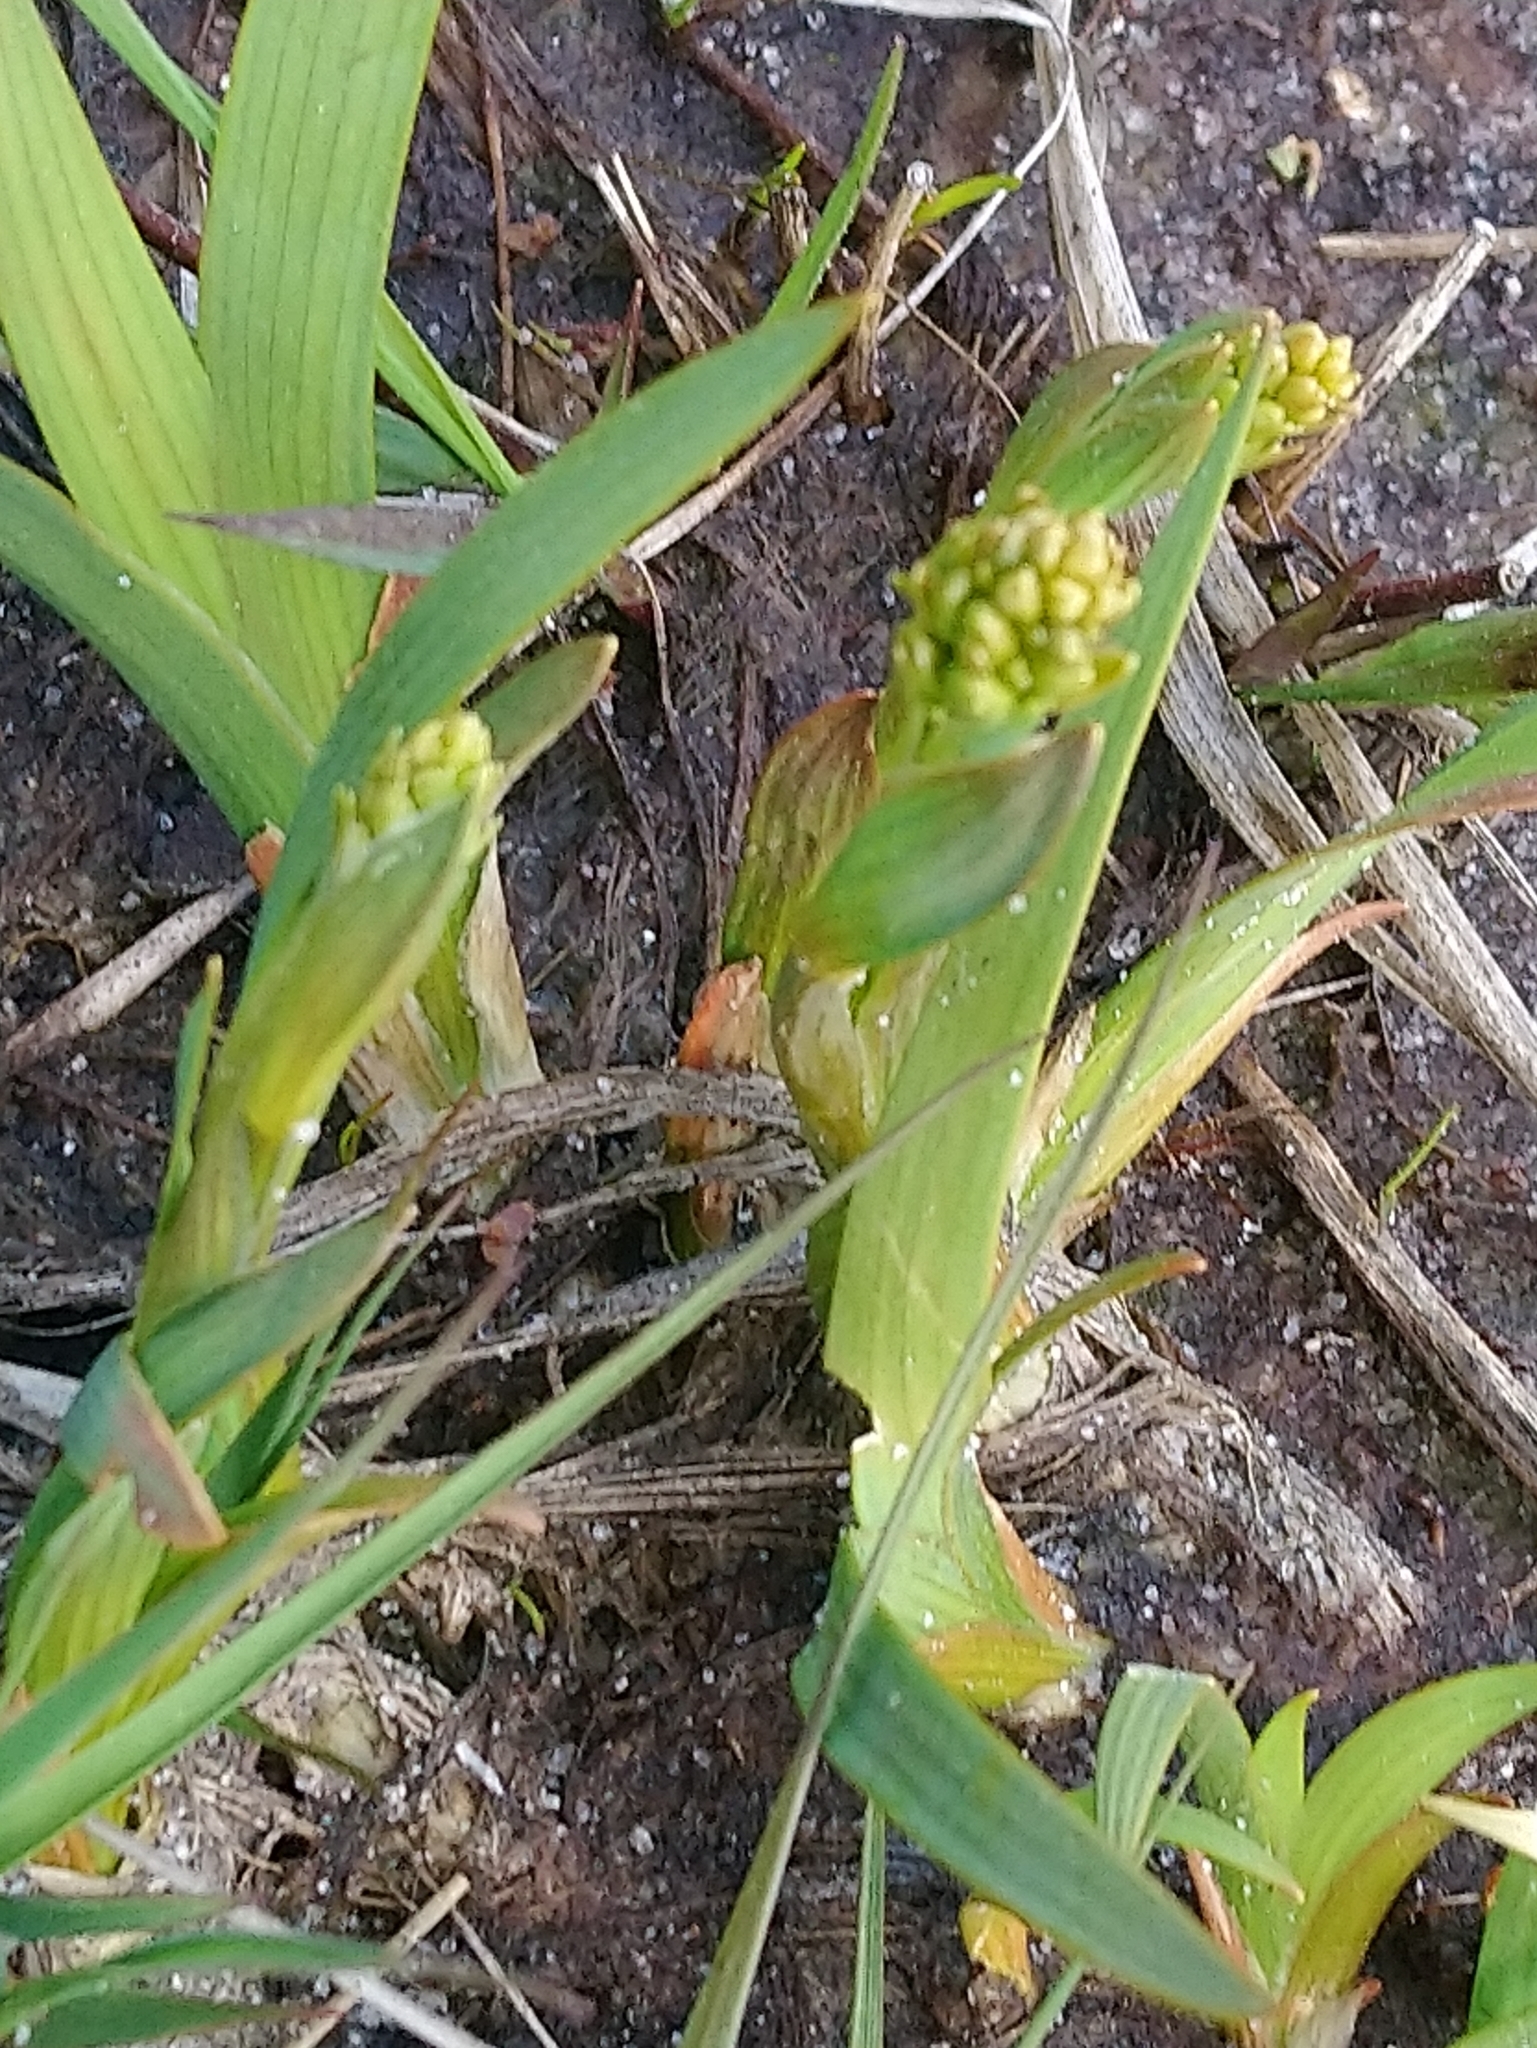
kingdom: Plantae
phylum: Tracheophyta
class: Liliopsida
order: Dioscoreales
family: Nartheciaceae
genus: Narthecium
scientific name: Narthecium ossifragum
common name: Bog asphodel
